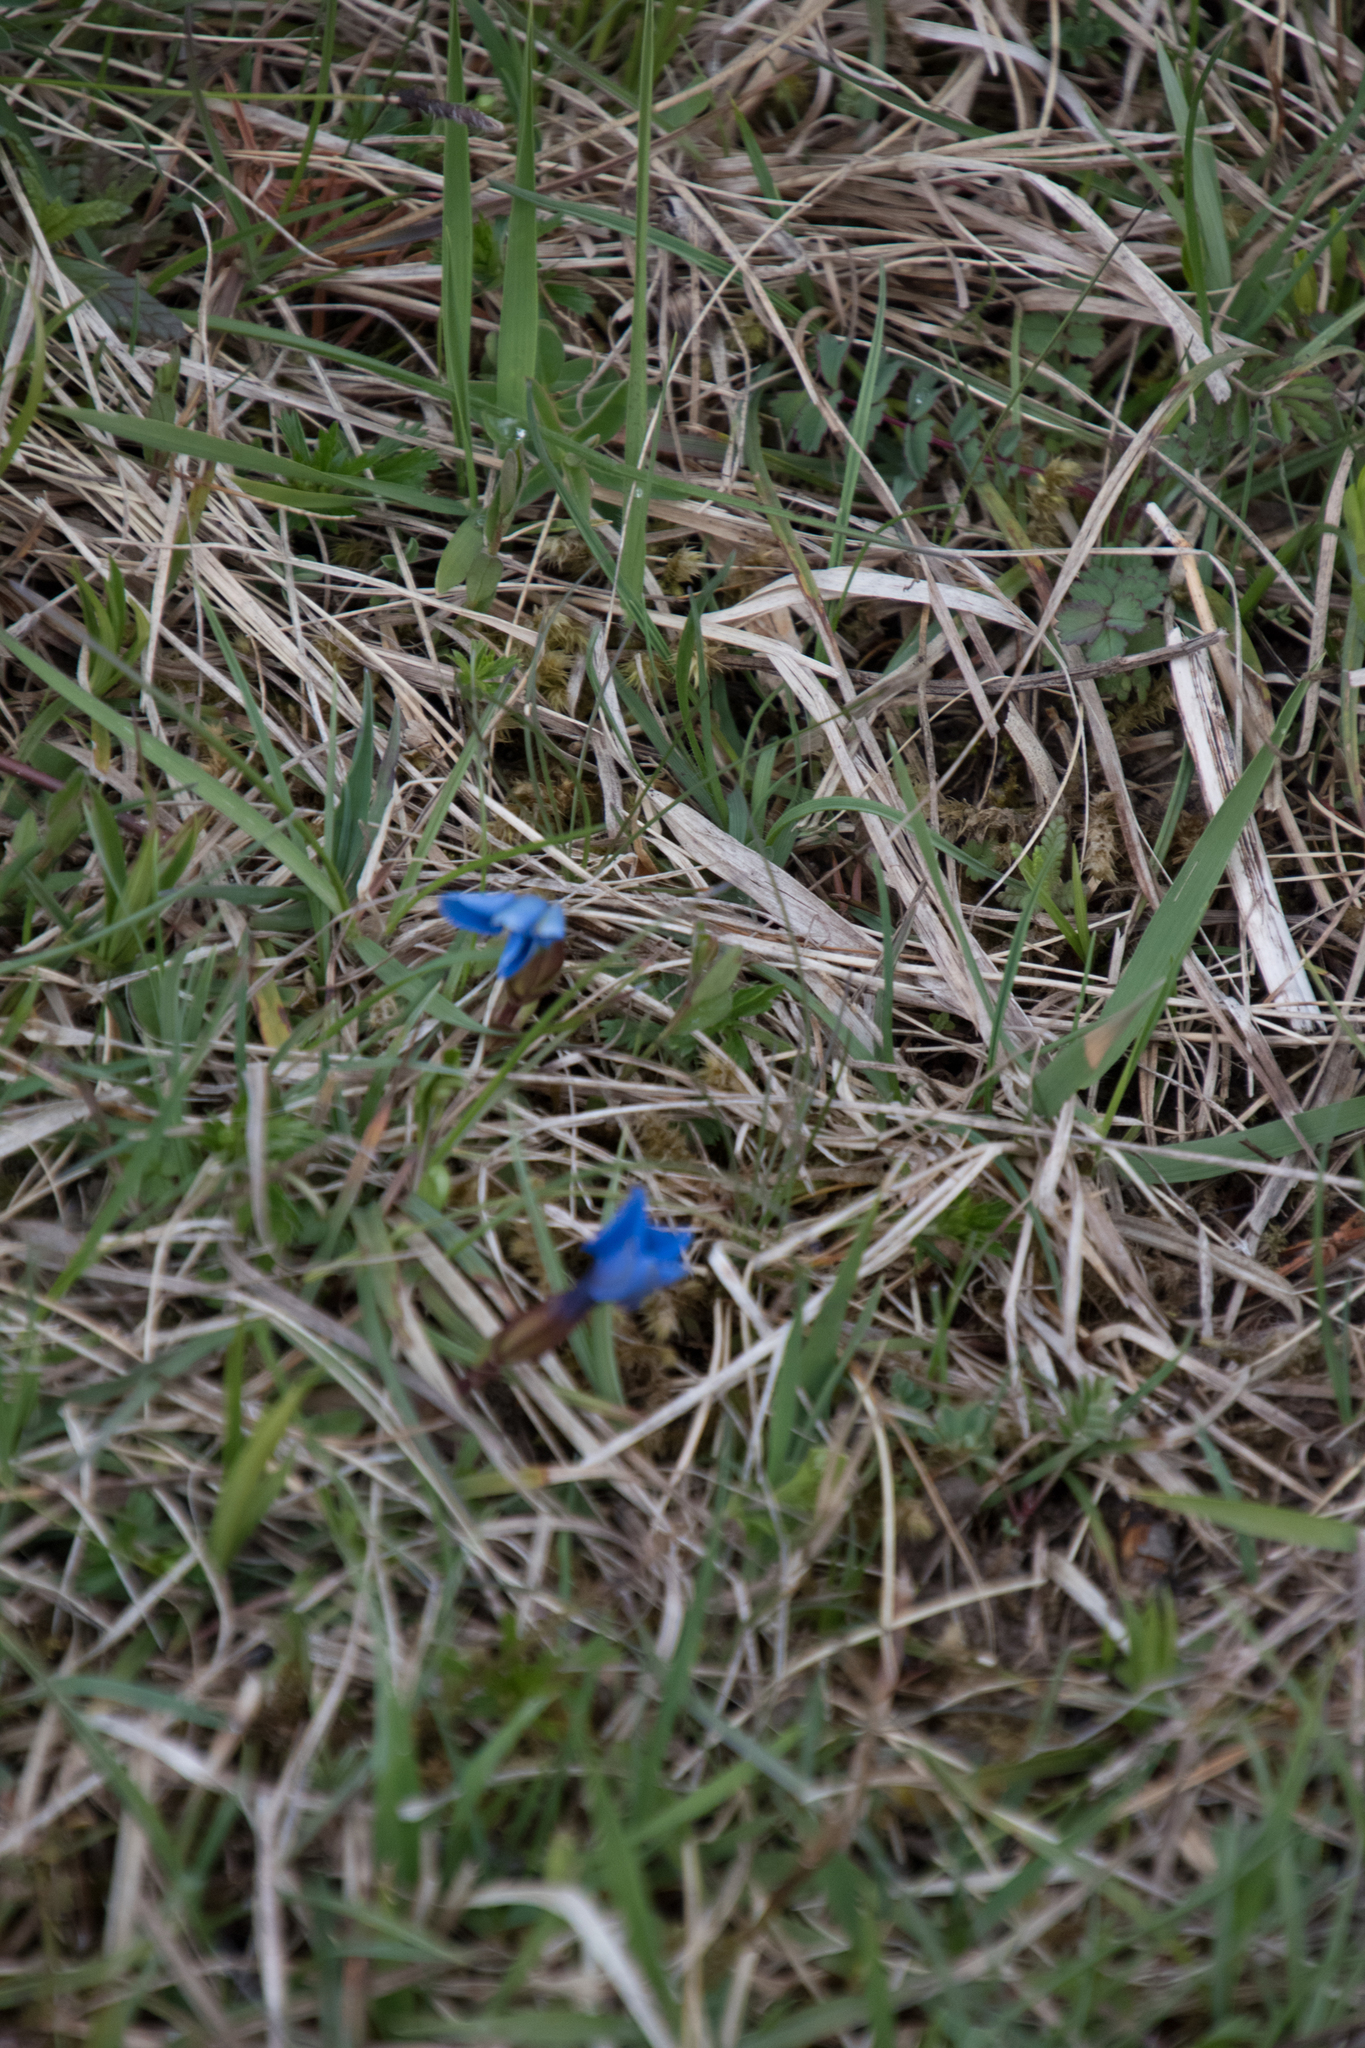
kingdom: Plantae
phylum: Tracheophyta
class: Magnoliopsida
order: Gentianales
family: Gentianaceae
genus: Gentiana
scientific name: Gentiana verna
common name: Spring gentian
